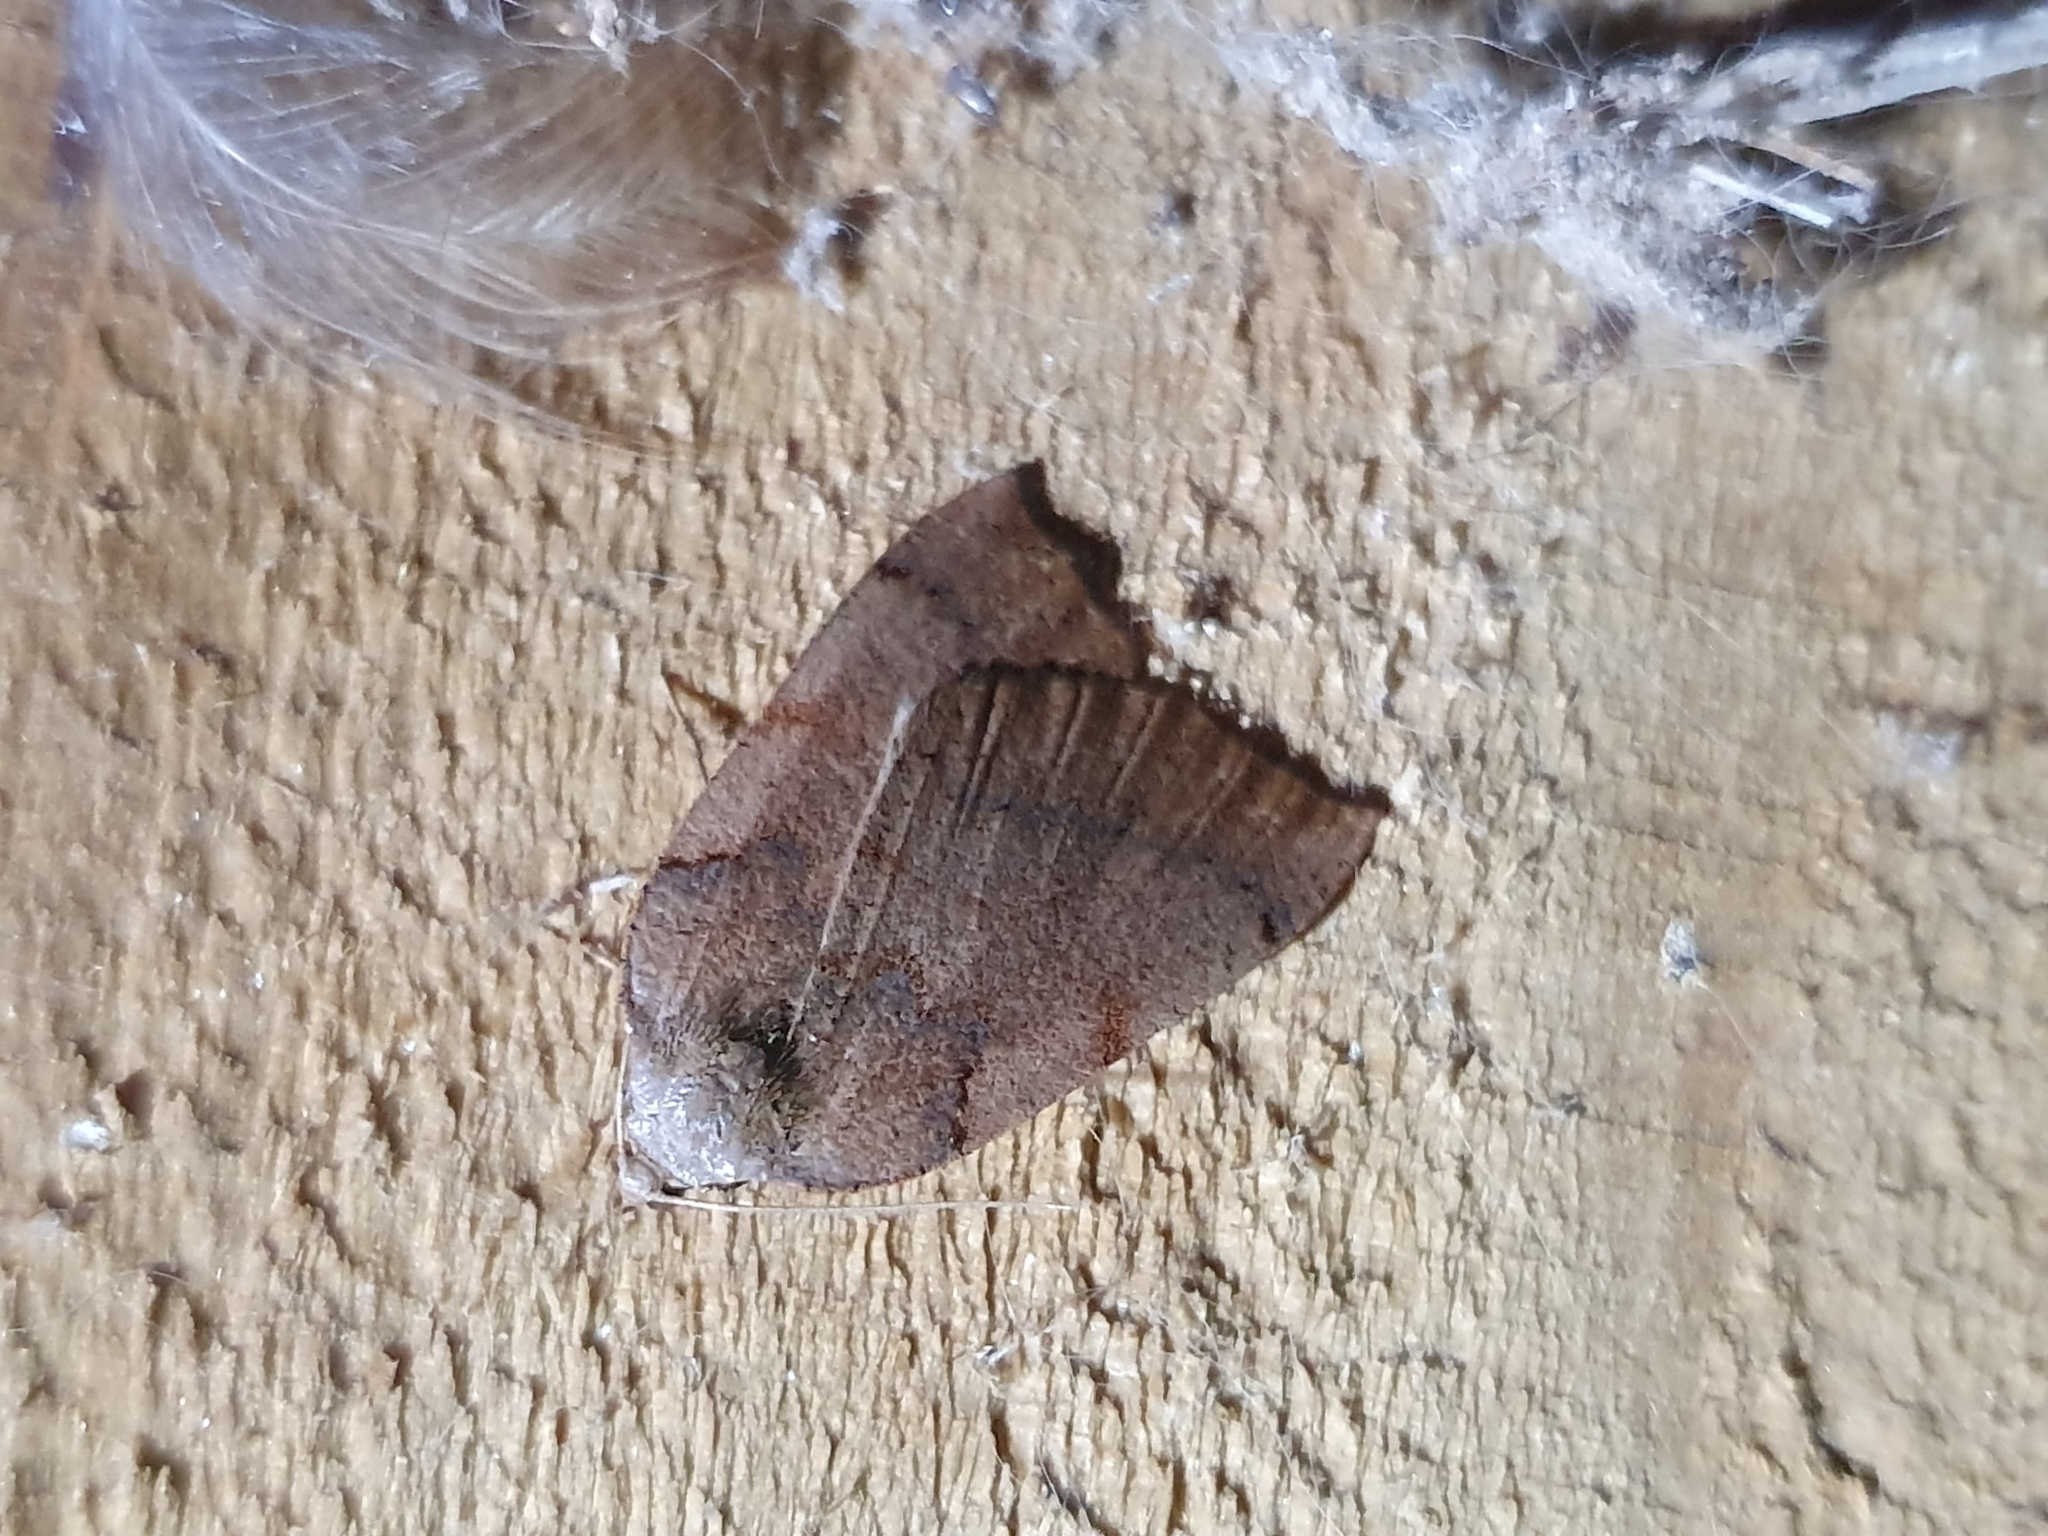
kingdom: Animalia
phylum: Arthropoda
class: Insecta
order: Lepidoptera
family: Geometridae
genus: Sestra
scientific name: Sestra humeraria
